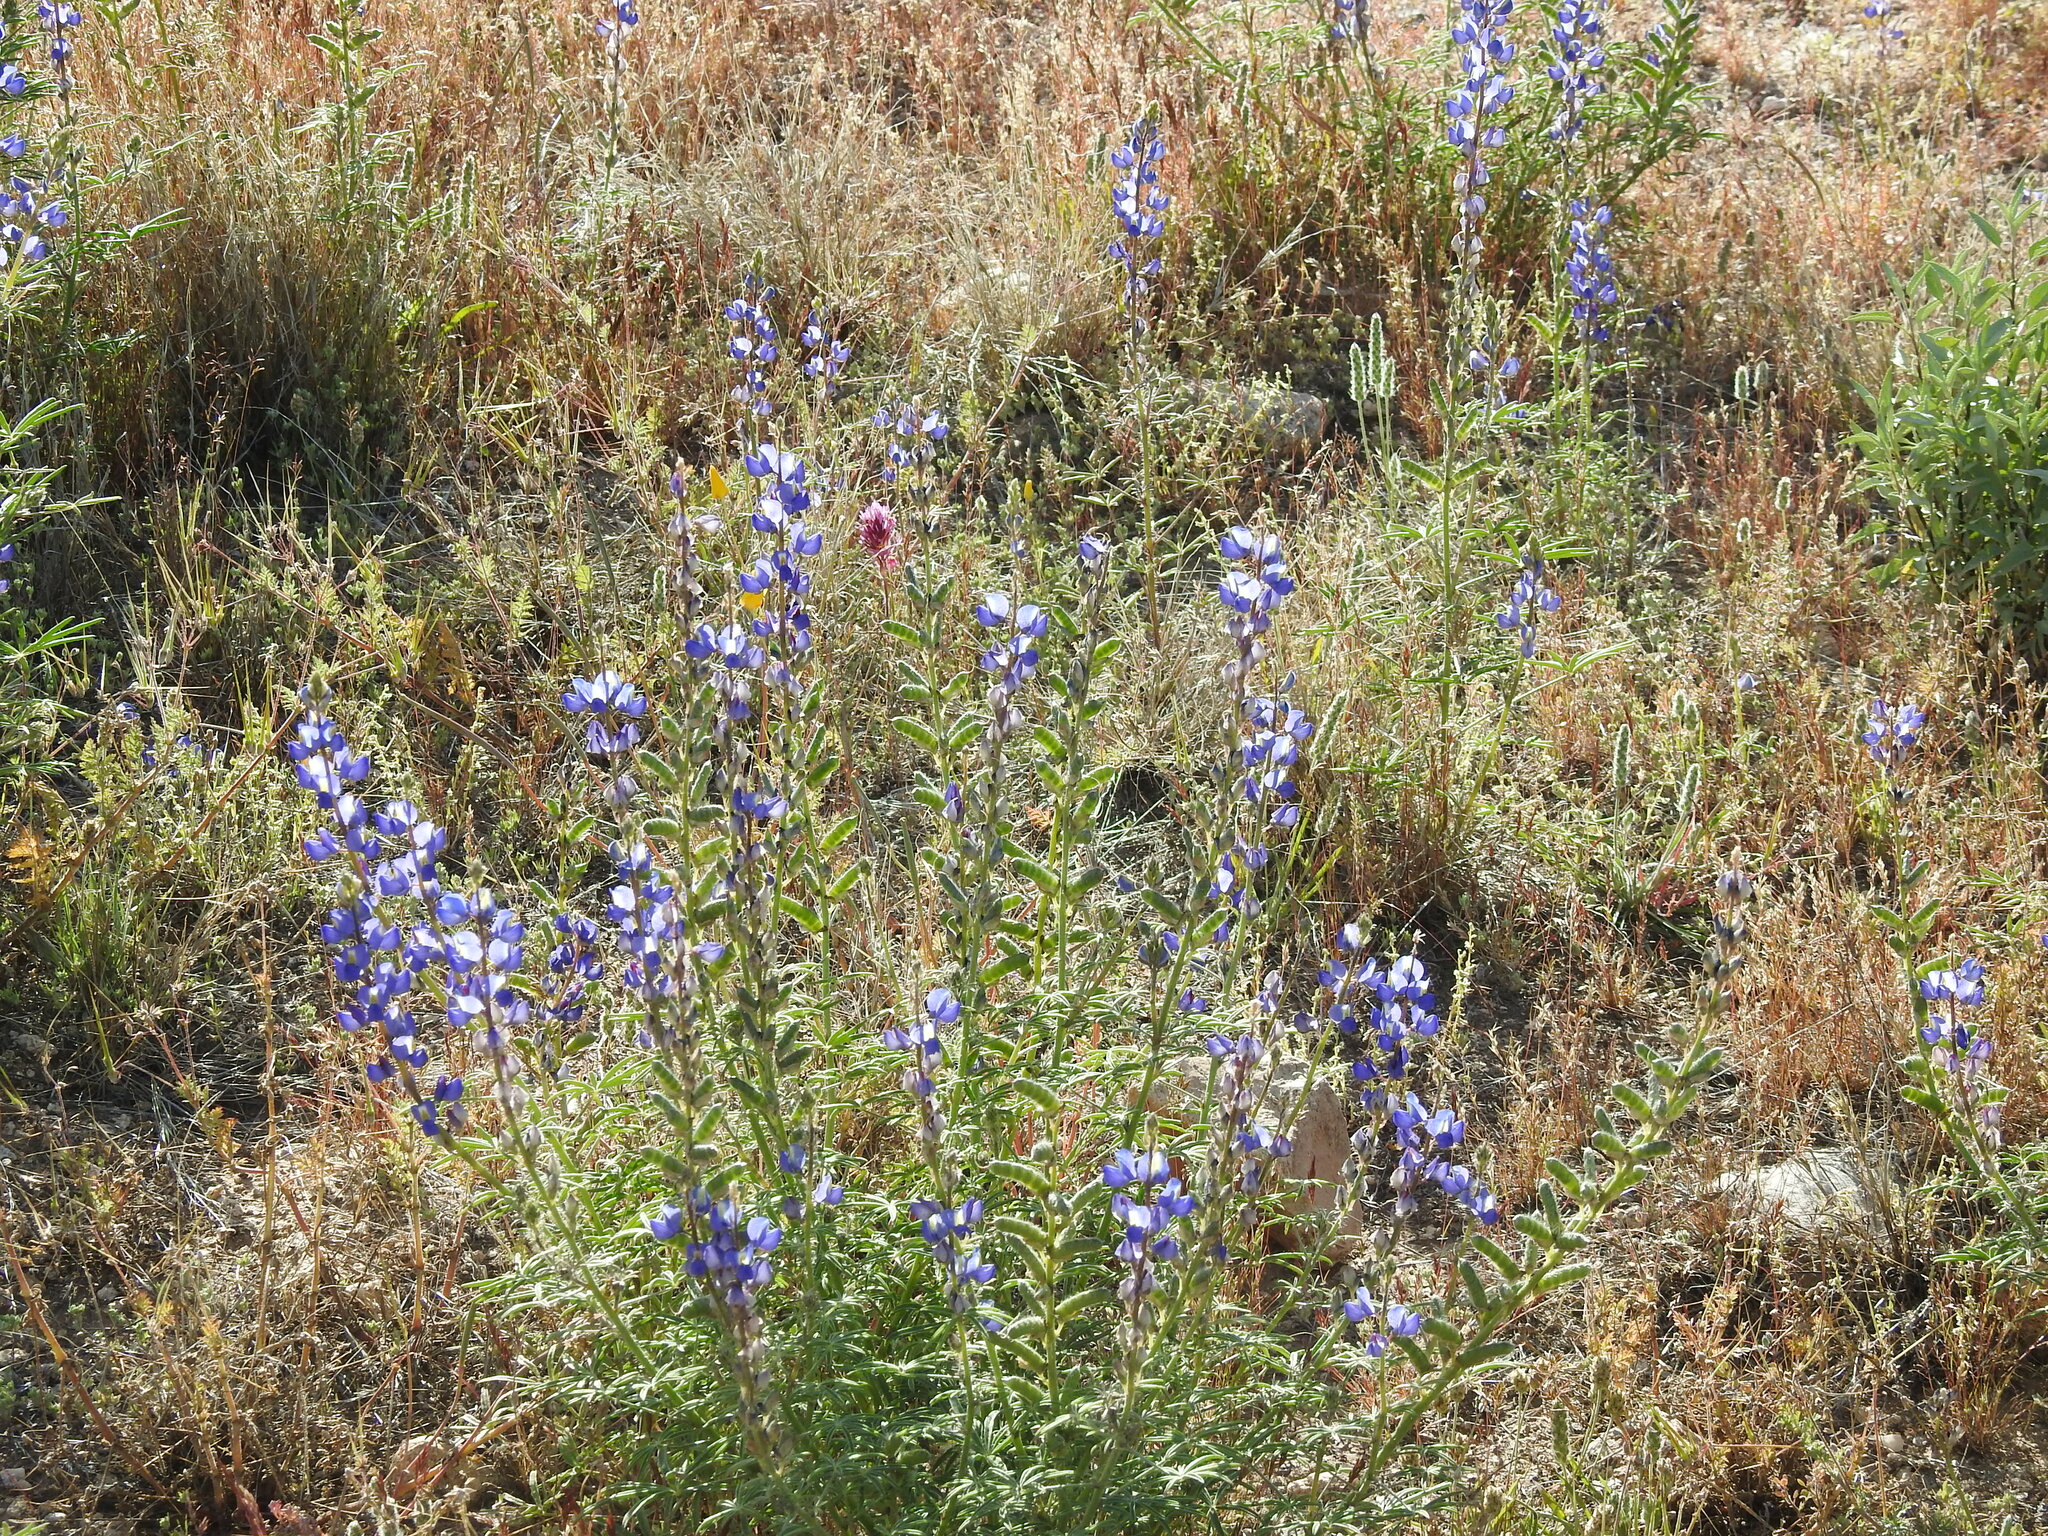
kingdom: Plantae
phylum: Tracheophyta
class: Magnoliopsida
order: Fabales
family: Fabaceae
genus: Lupinus
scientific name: Lupinus sparsiflorus
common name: Coulter's lupine
